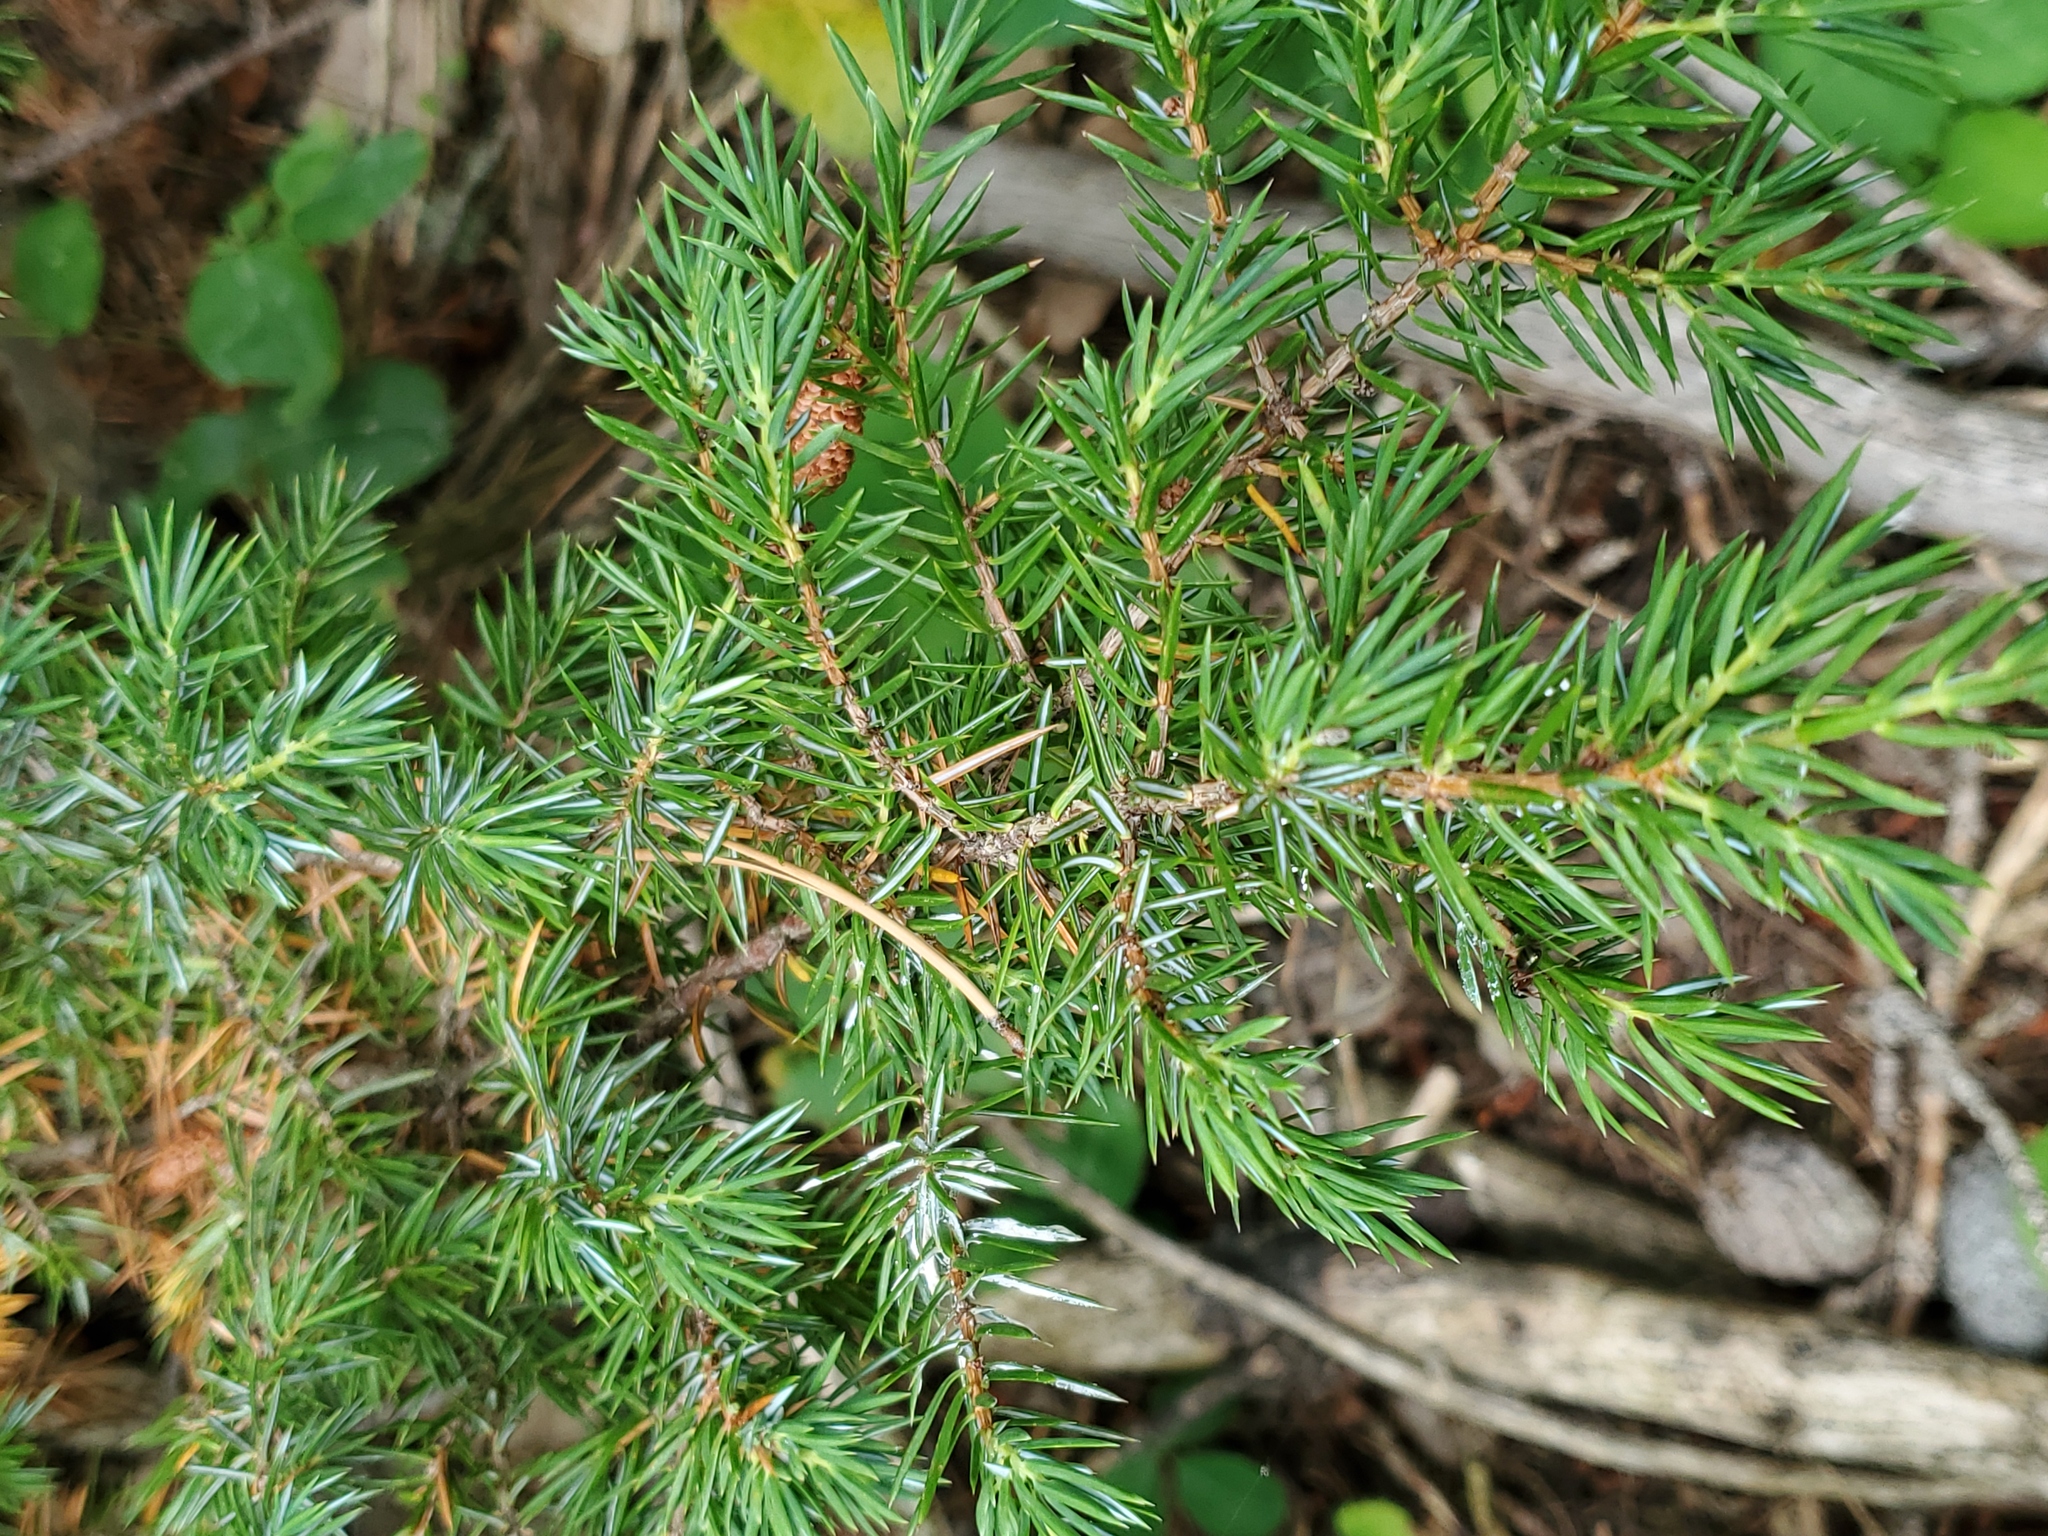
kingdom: Plantae
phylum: Tracheophyta
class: Pinopsida
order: Pinales
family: Cupressaceae
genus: Juniperus
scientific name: Juniperus communis
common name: Common juniper
